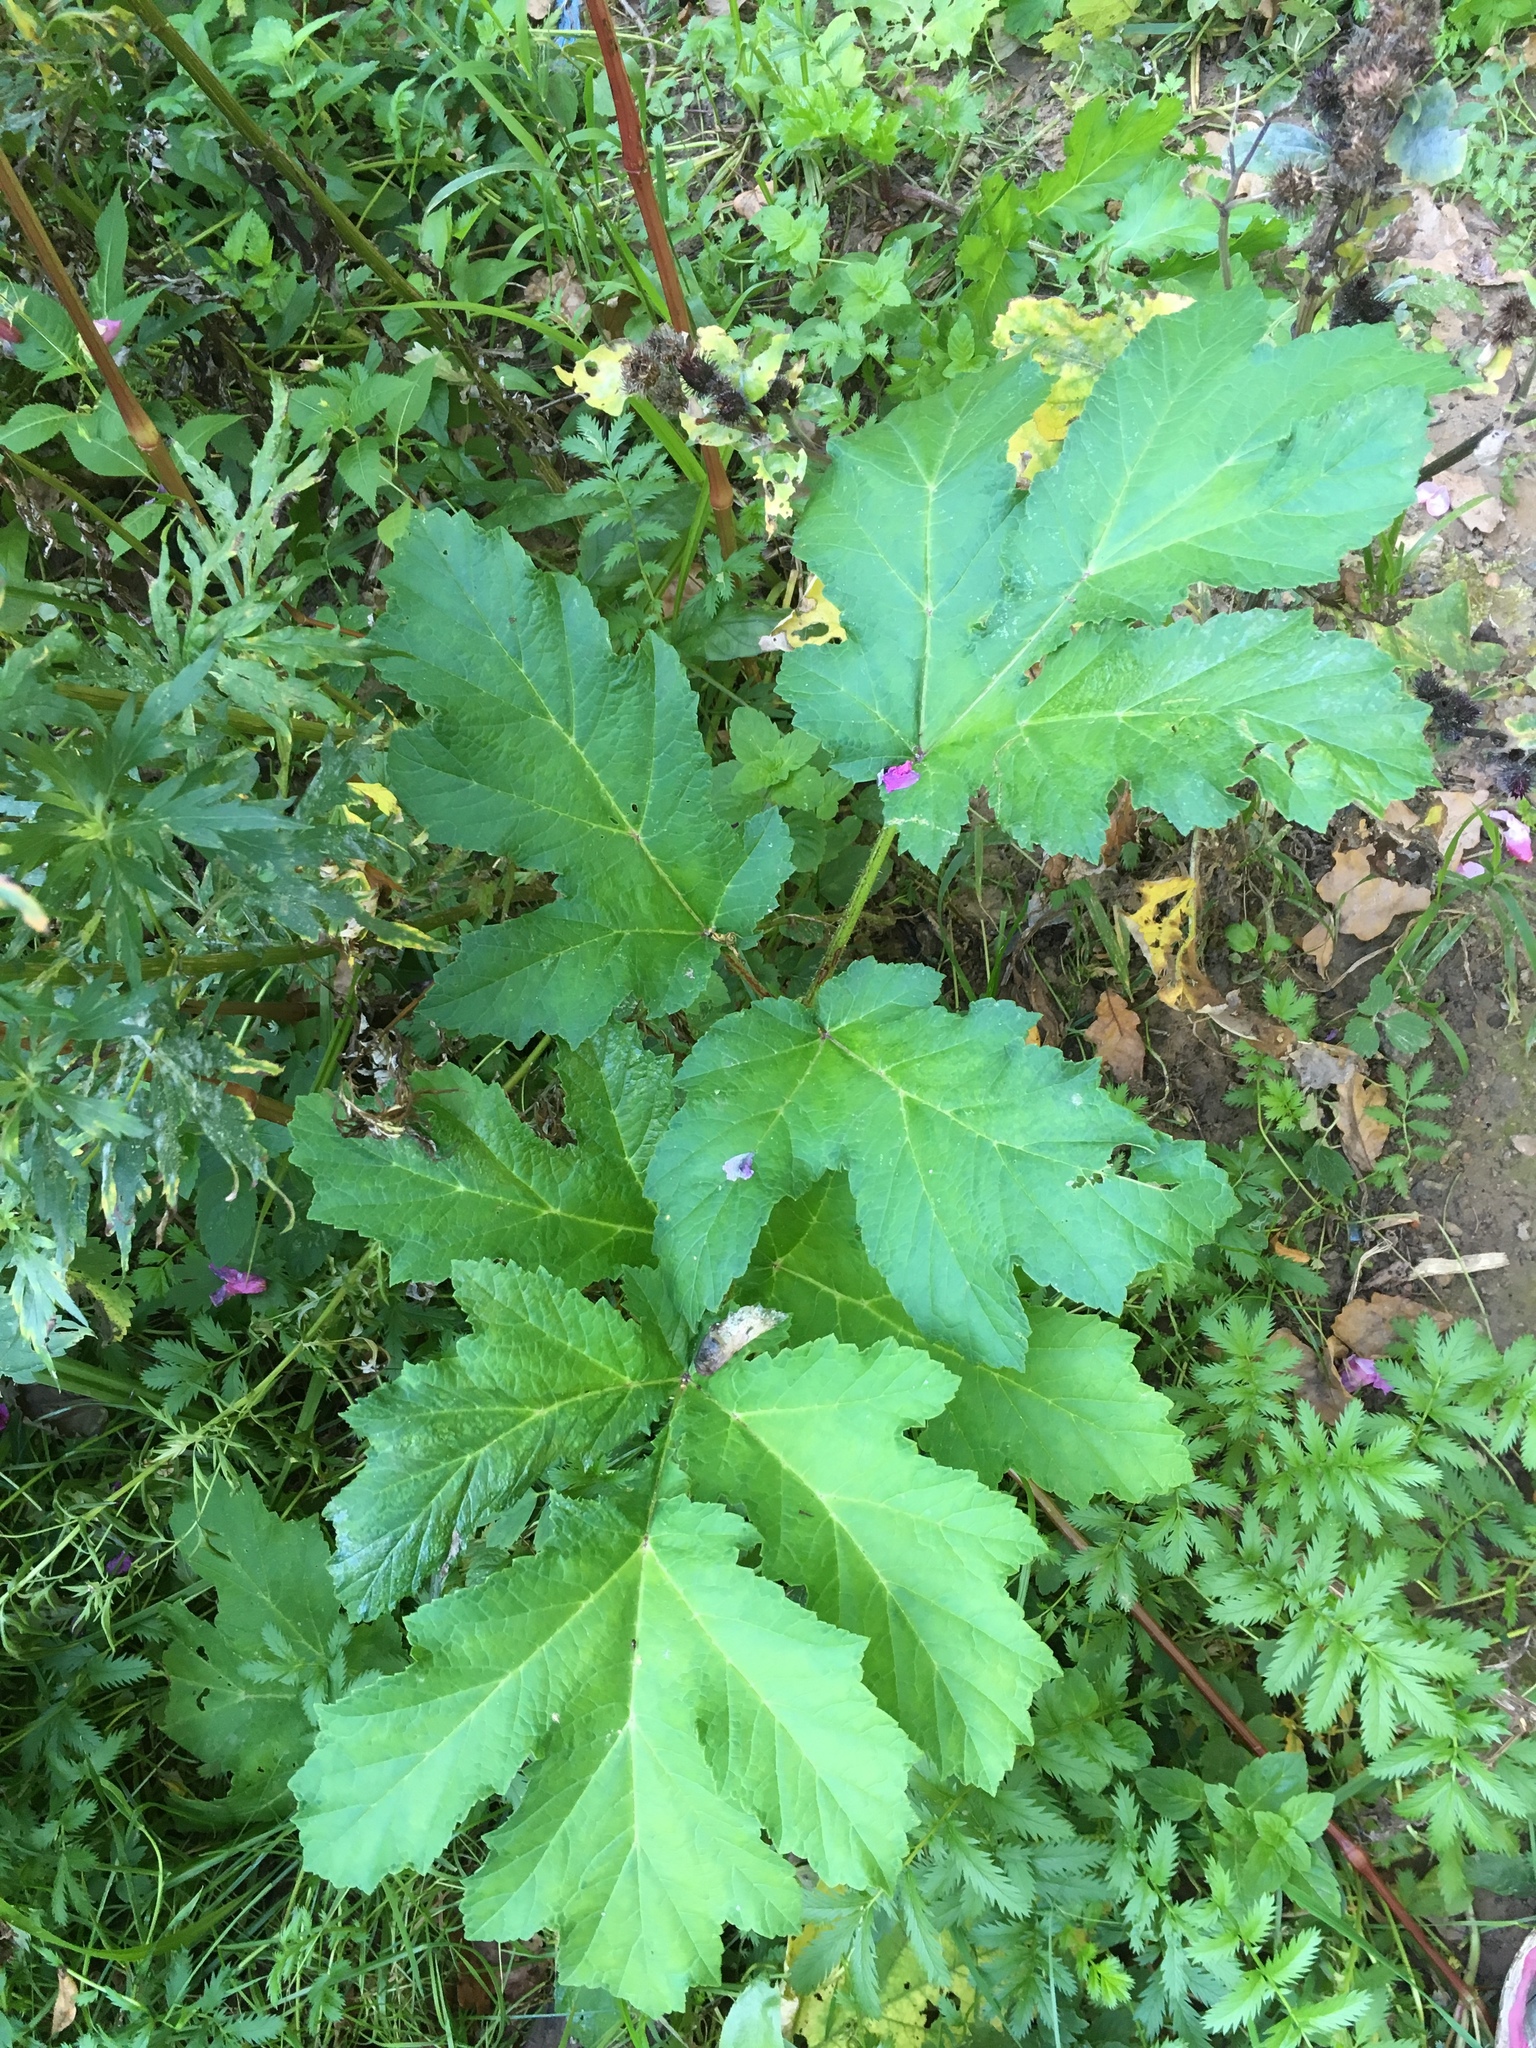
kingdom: Plantae
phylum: Tracheophyta
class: Magnoliopsida
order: Apiales
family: Apiaceae
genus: Heracleum
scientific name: Heracleum sosnowskyi
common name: Sosnowsky's hogweed
